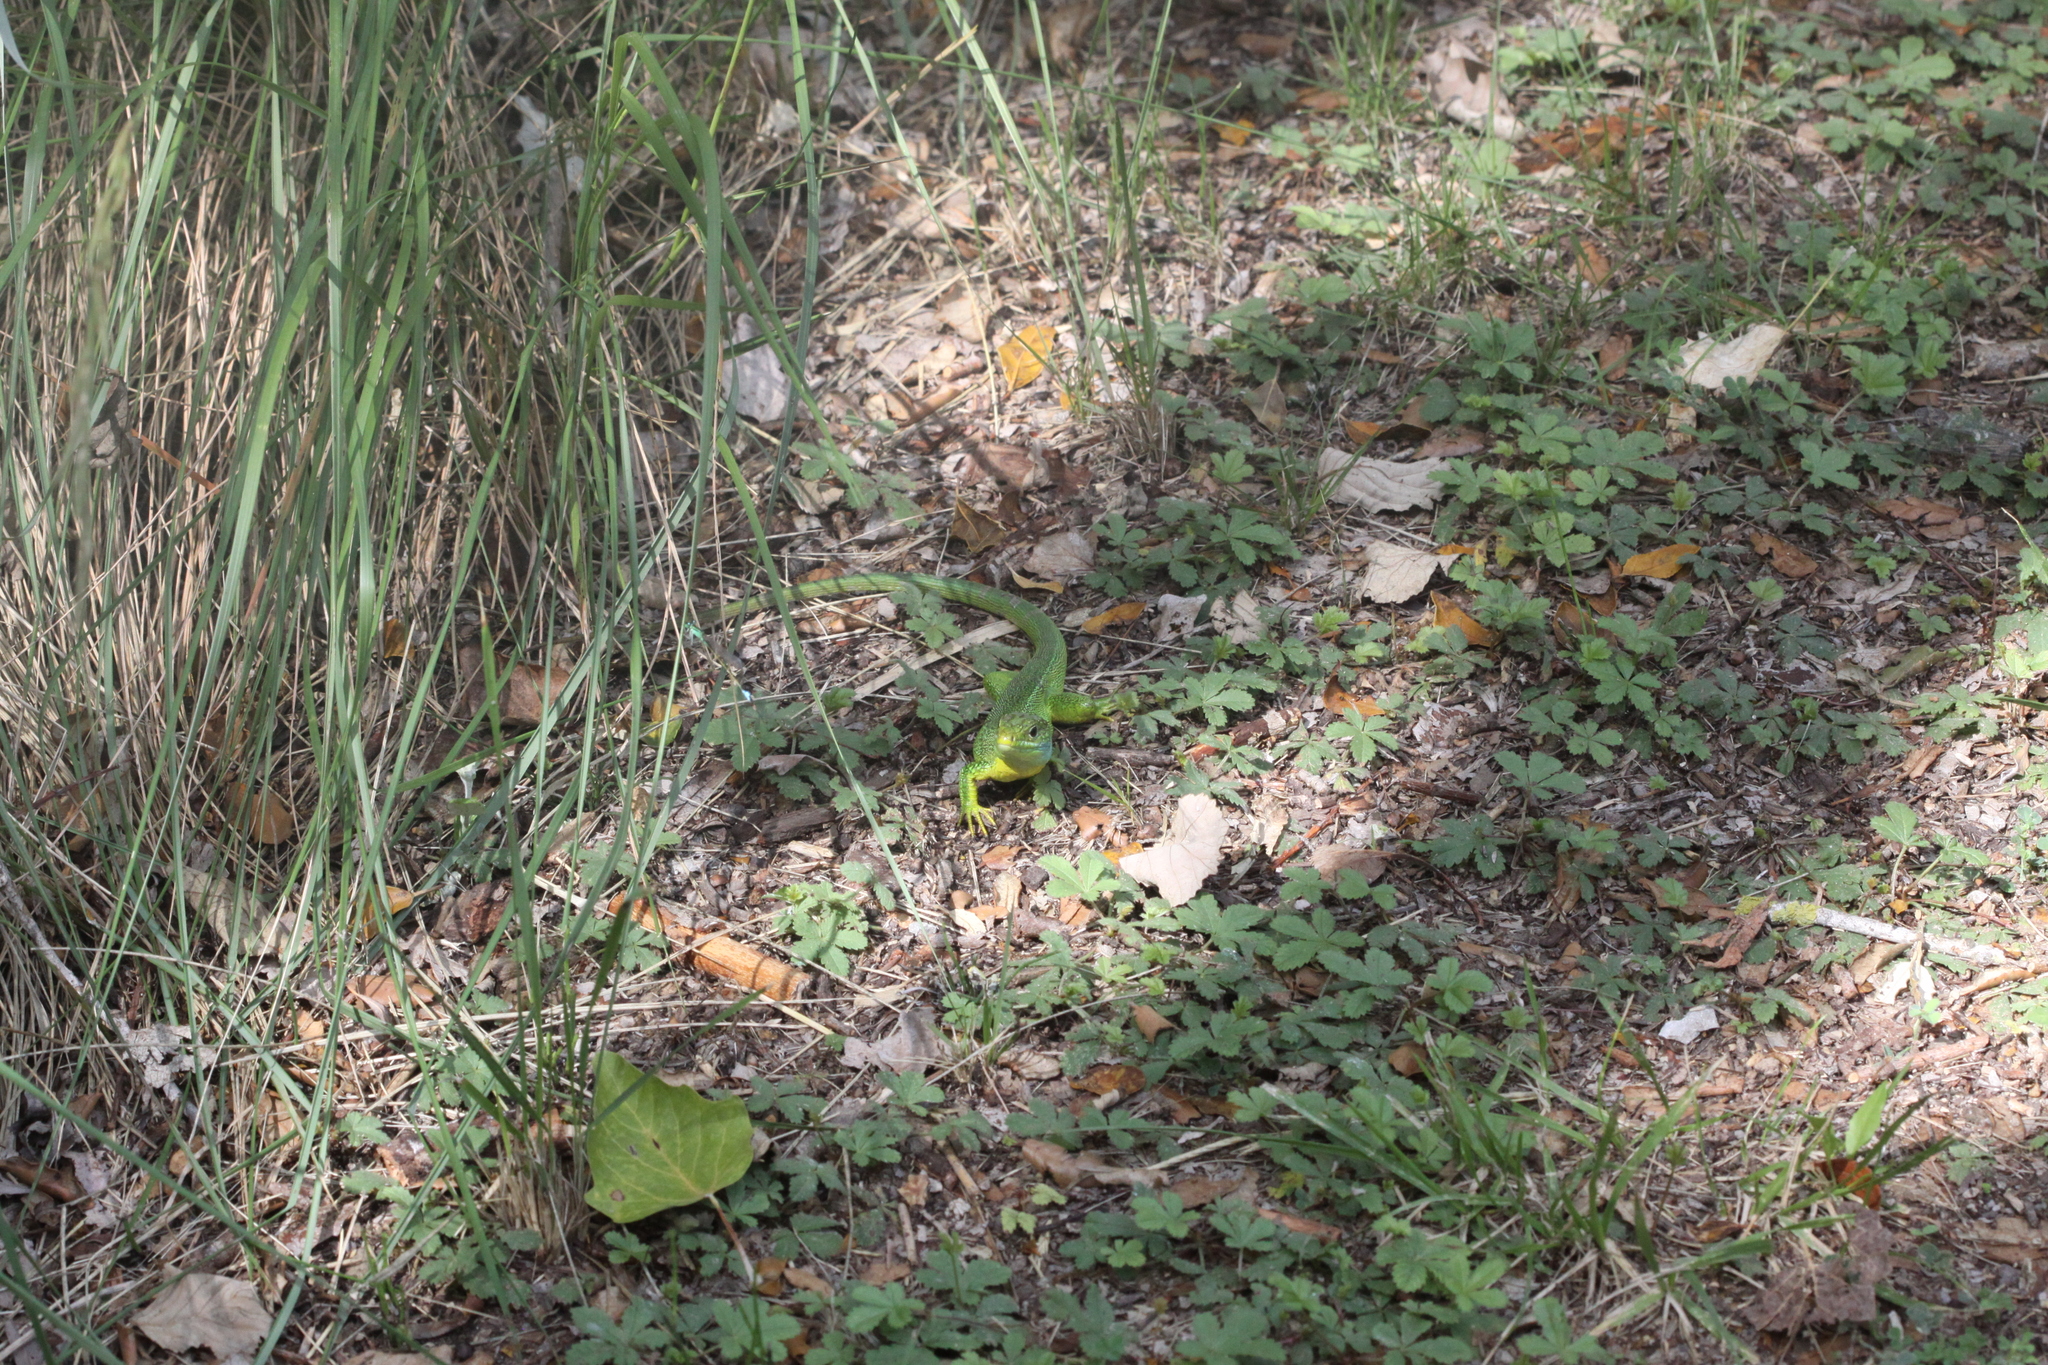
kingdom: Animalia
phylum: Chordata
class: Squamata
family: Lacertidae
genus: Lacerta
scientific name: Lacerta bilineata
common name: Western green lizard
